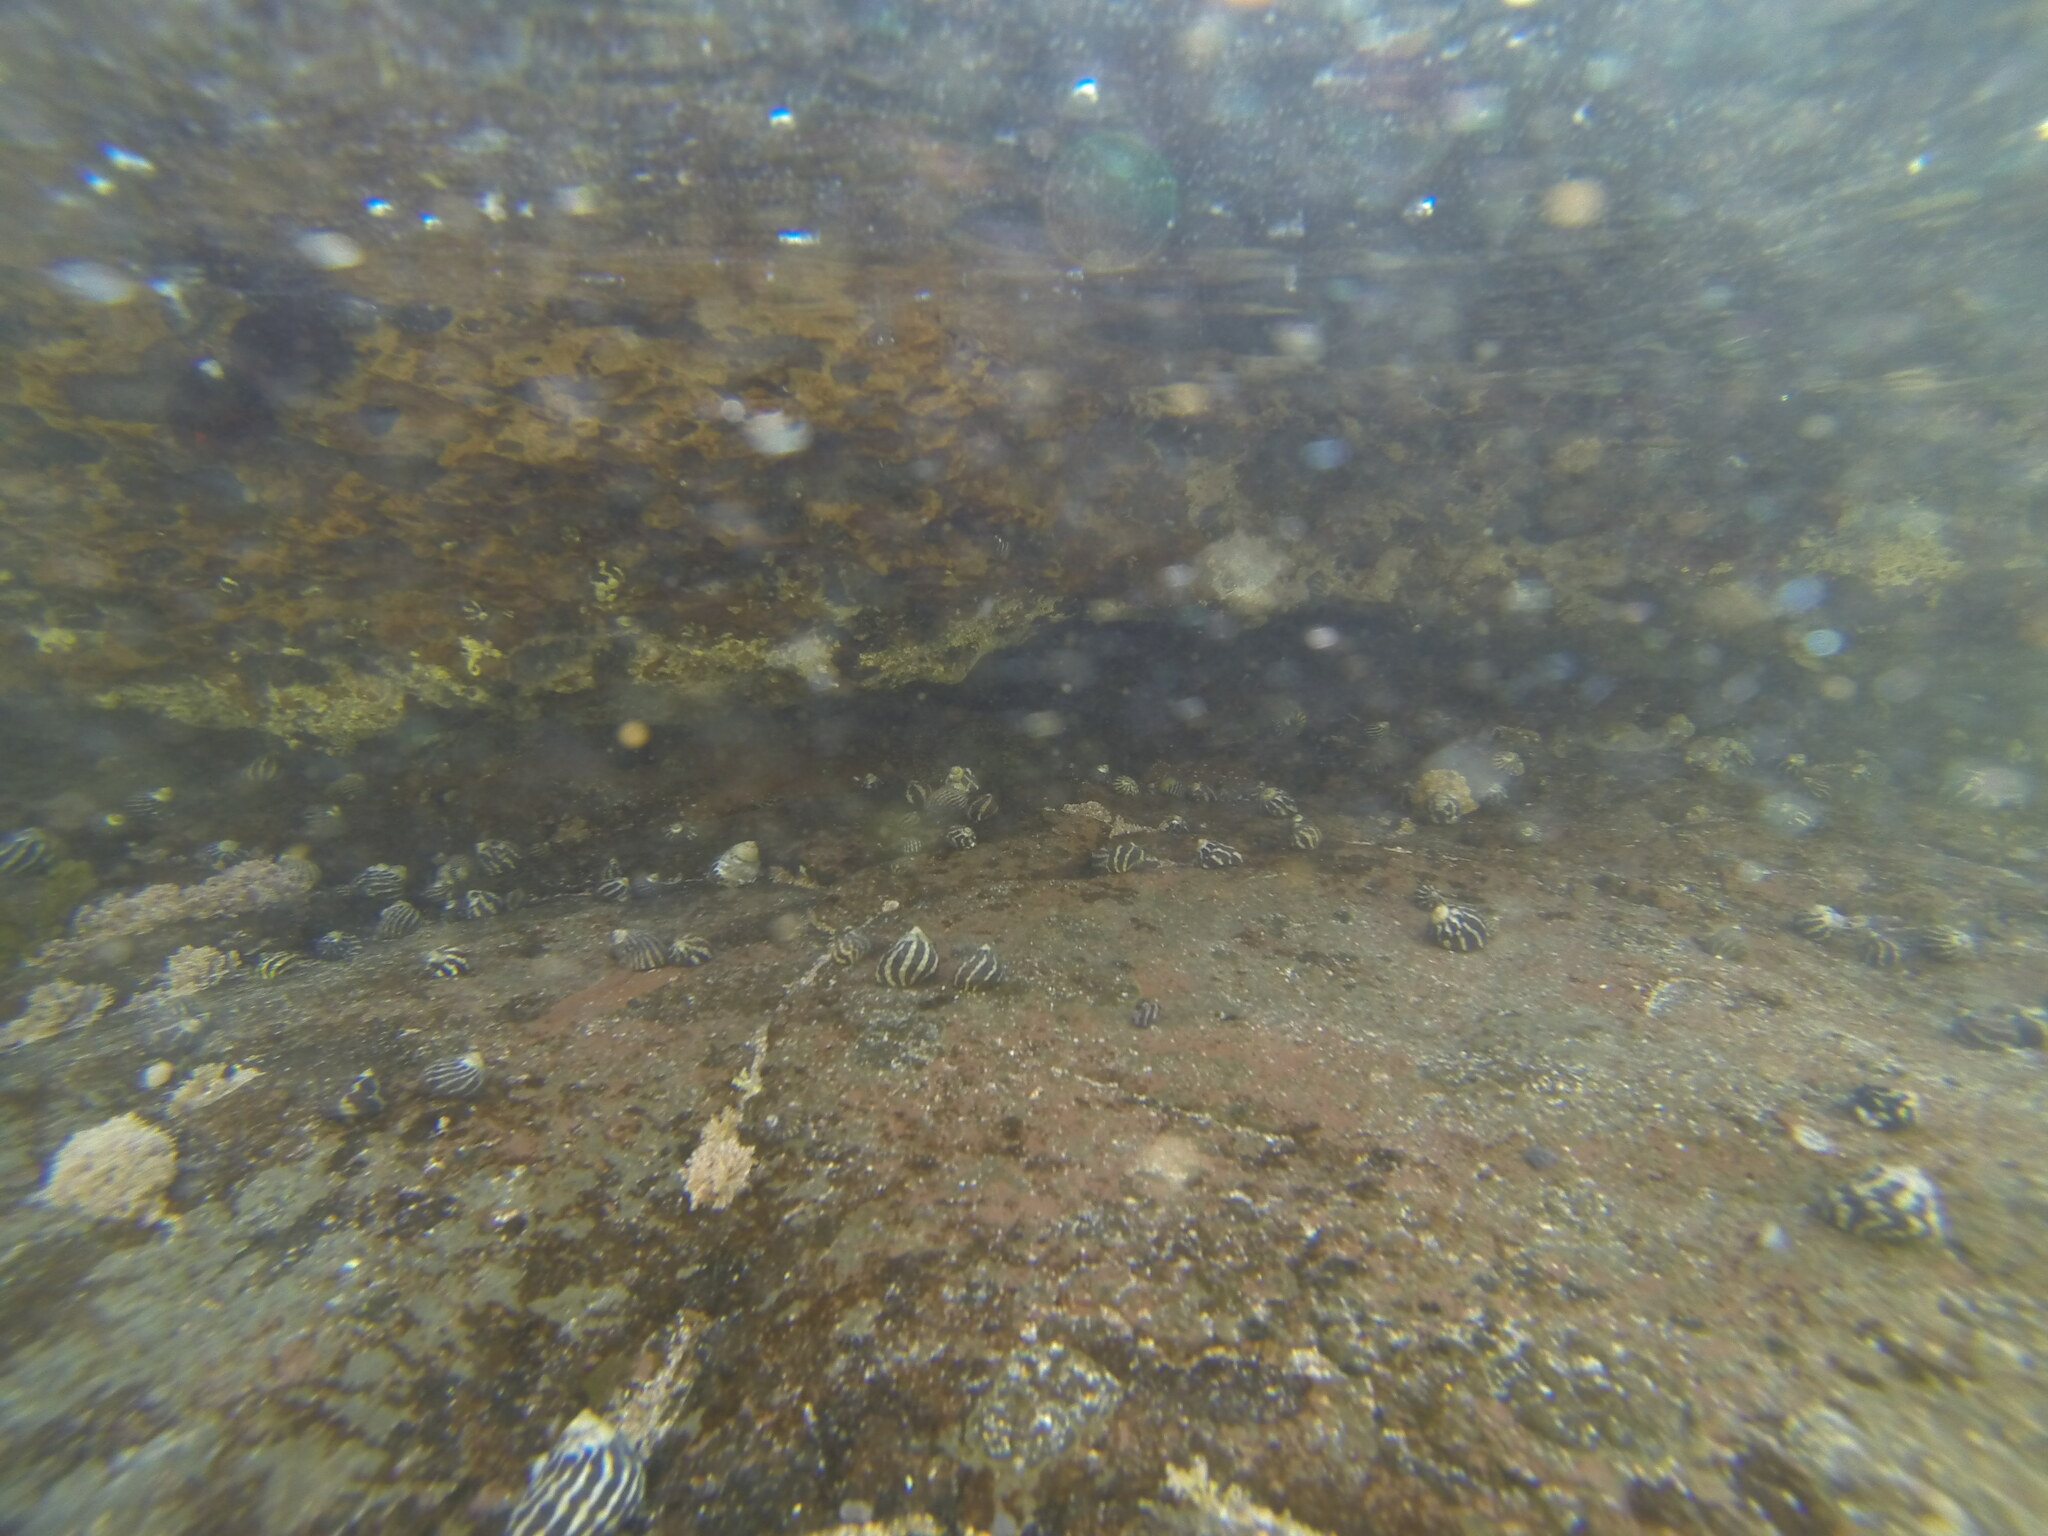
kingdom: Animalia
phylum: Mollusca
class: Gastropoda
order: Trochida
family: Trochidae
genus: Austrocochlea
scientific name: Austrocochlea porcata
